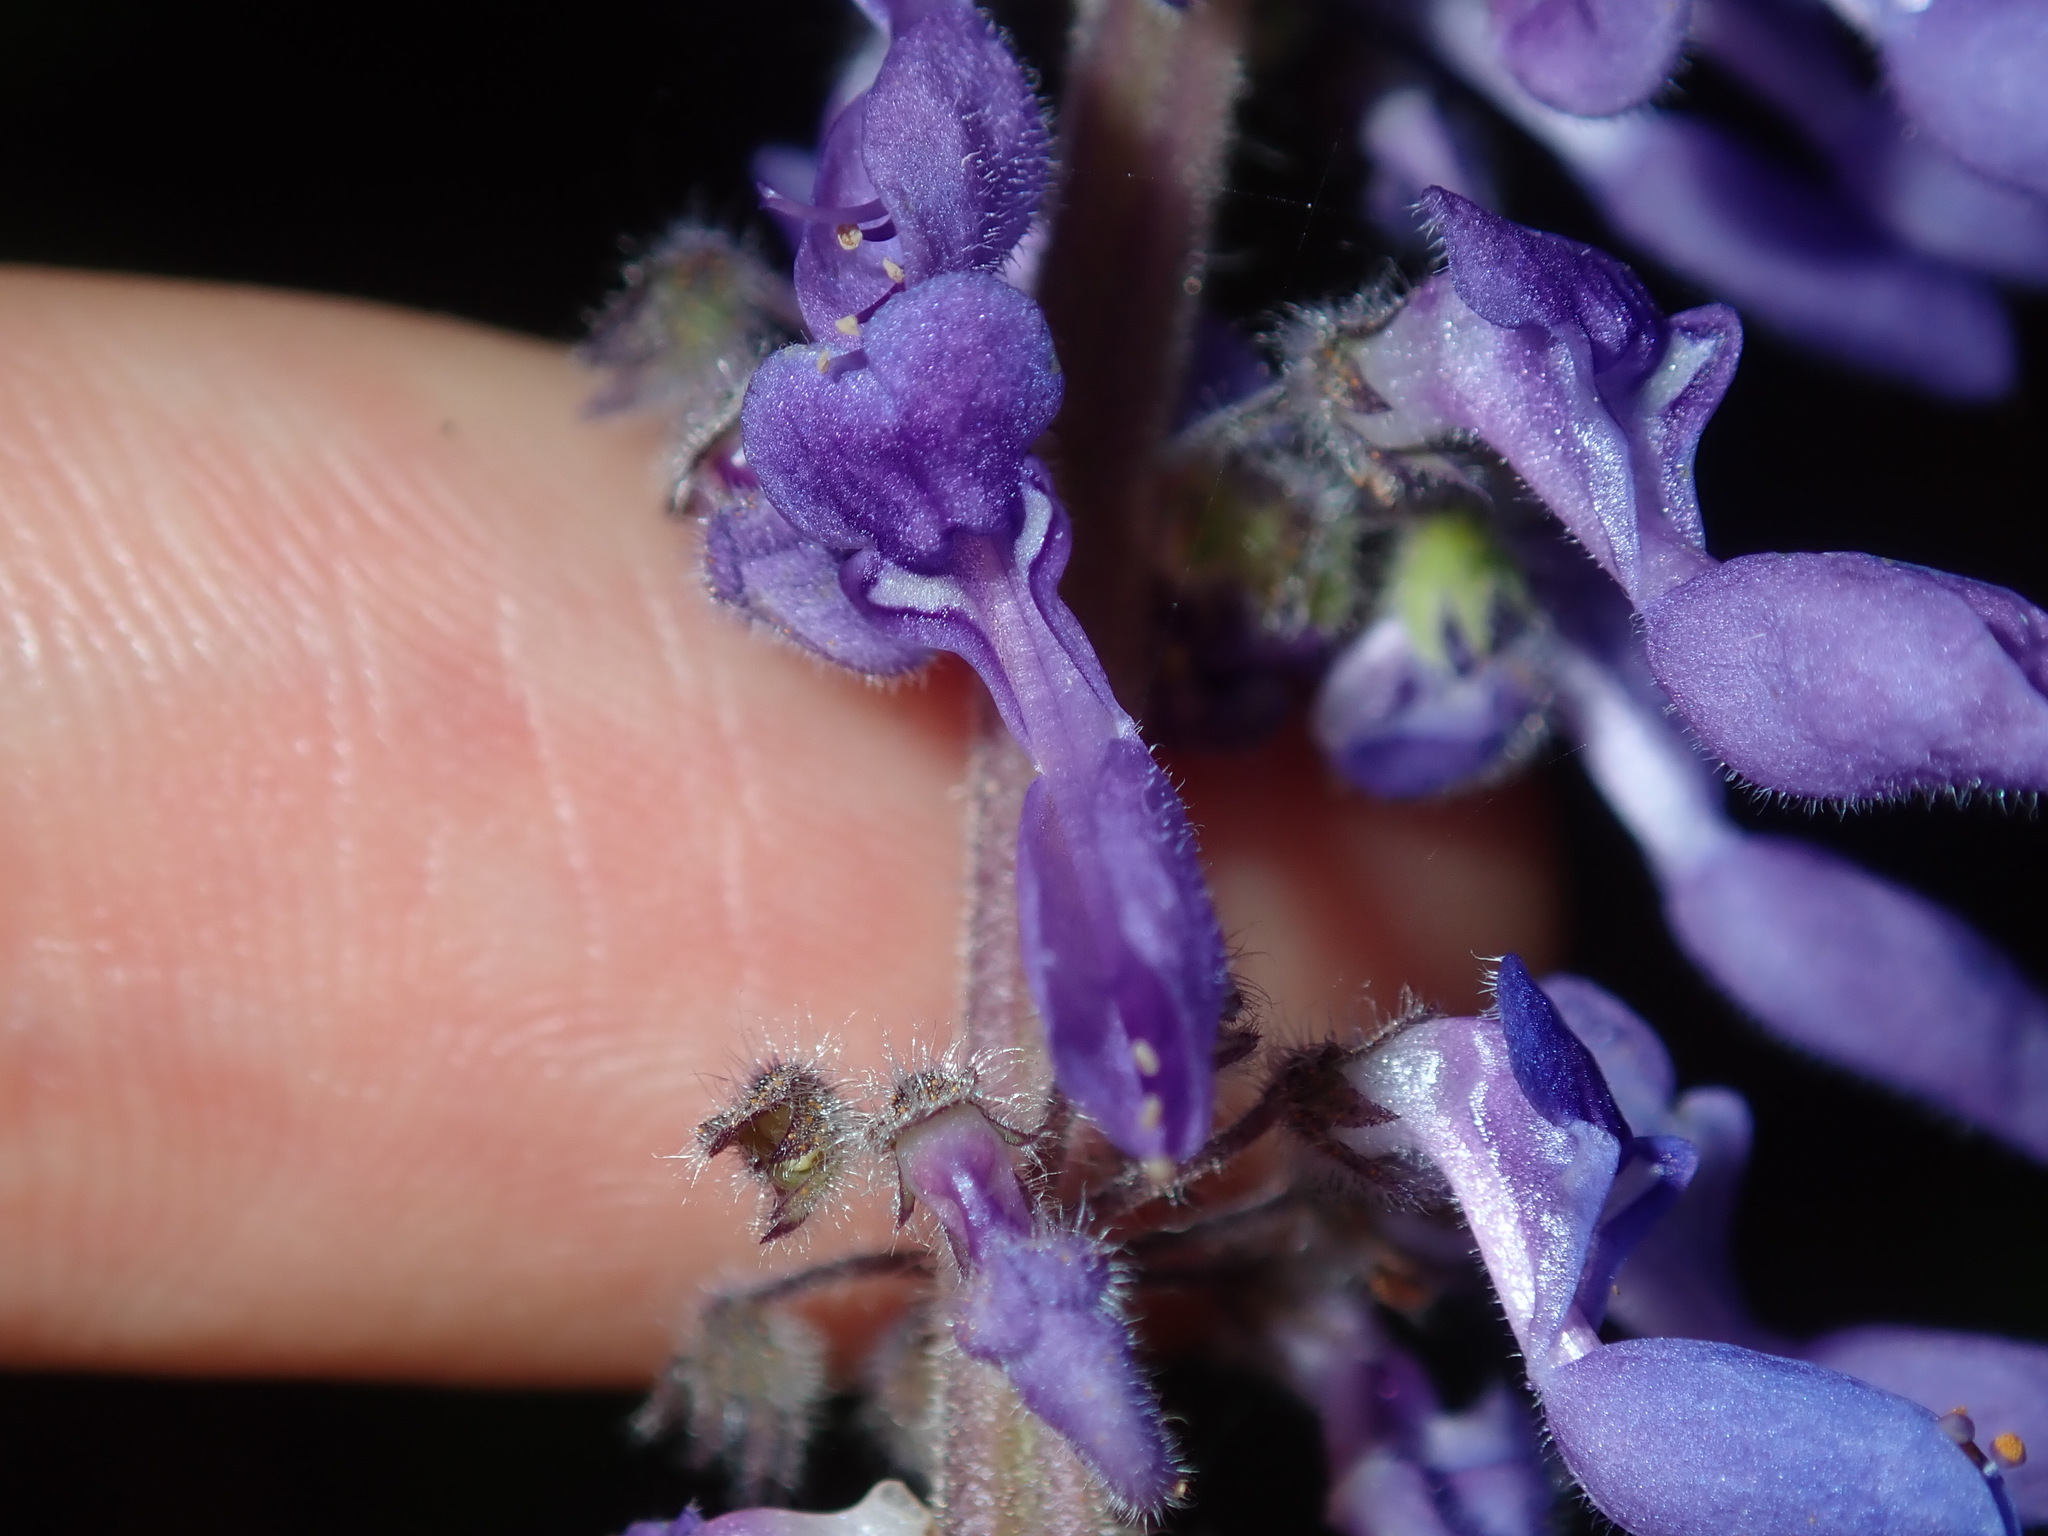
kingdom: Plantae
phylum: Tracheophyta
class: Magnoliopsida
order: Lamiales
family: Lamiaceae
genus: Coleus
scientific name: Coleus graveolens
